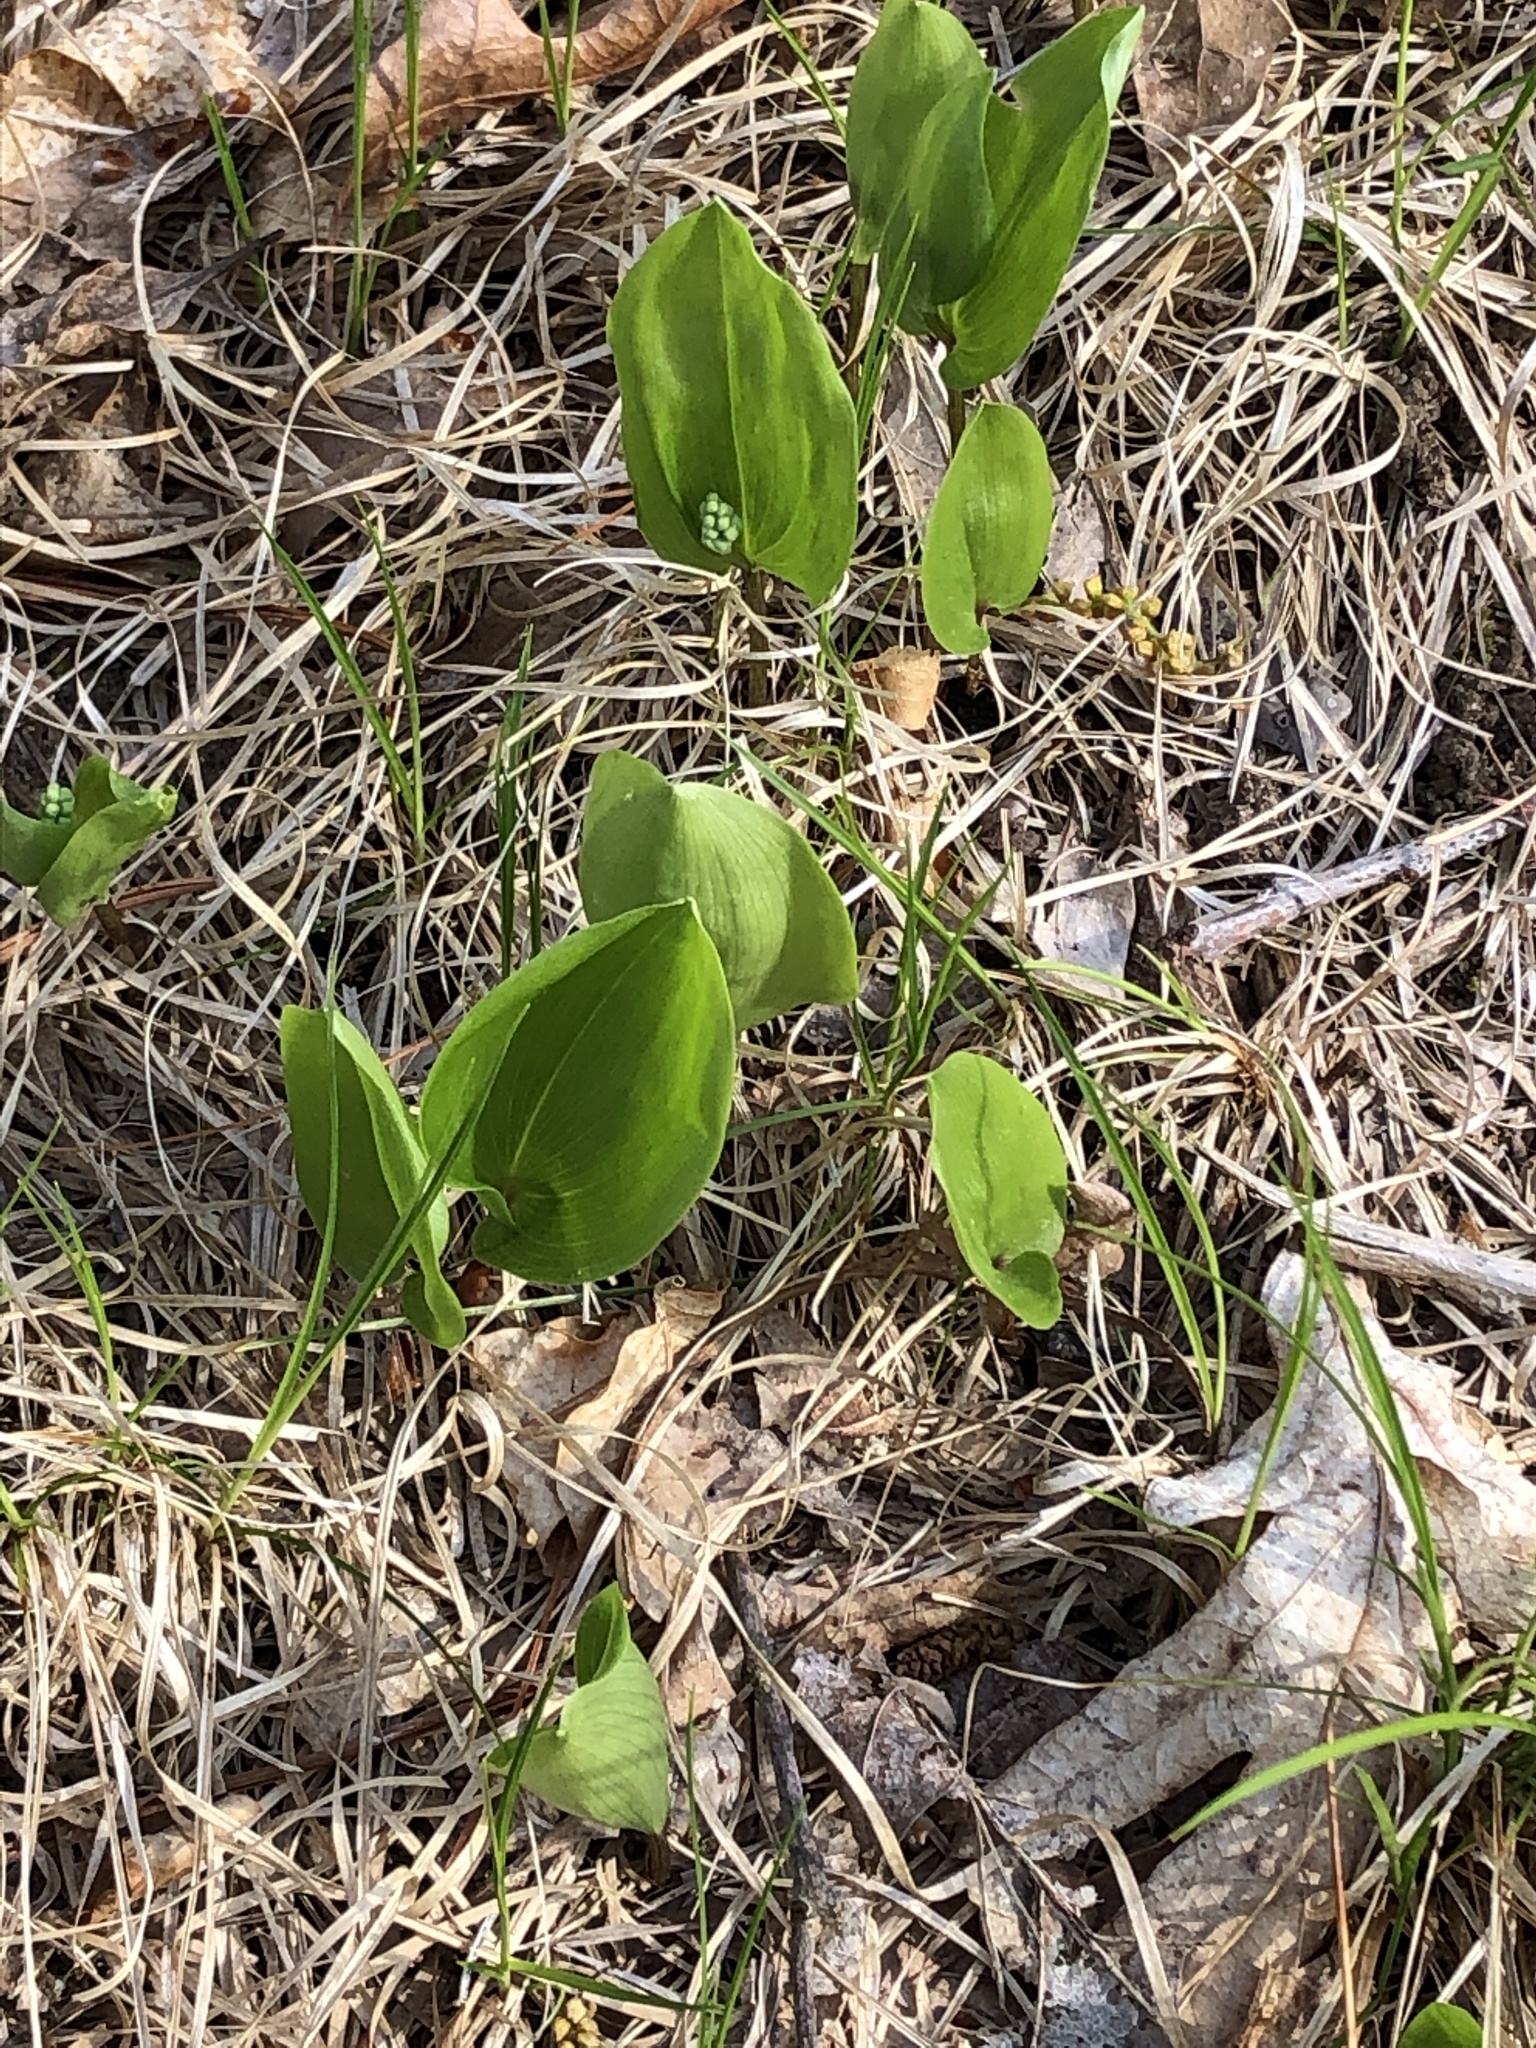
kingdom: Plantae
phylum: Tracheophyta
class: Liliopsida
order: Asparagales
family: Asparagaceae
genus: Maianthemum
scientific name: Maianthemum canadense
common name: False lily-of-the-valley
